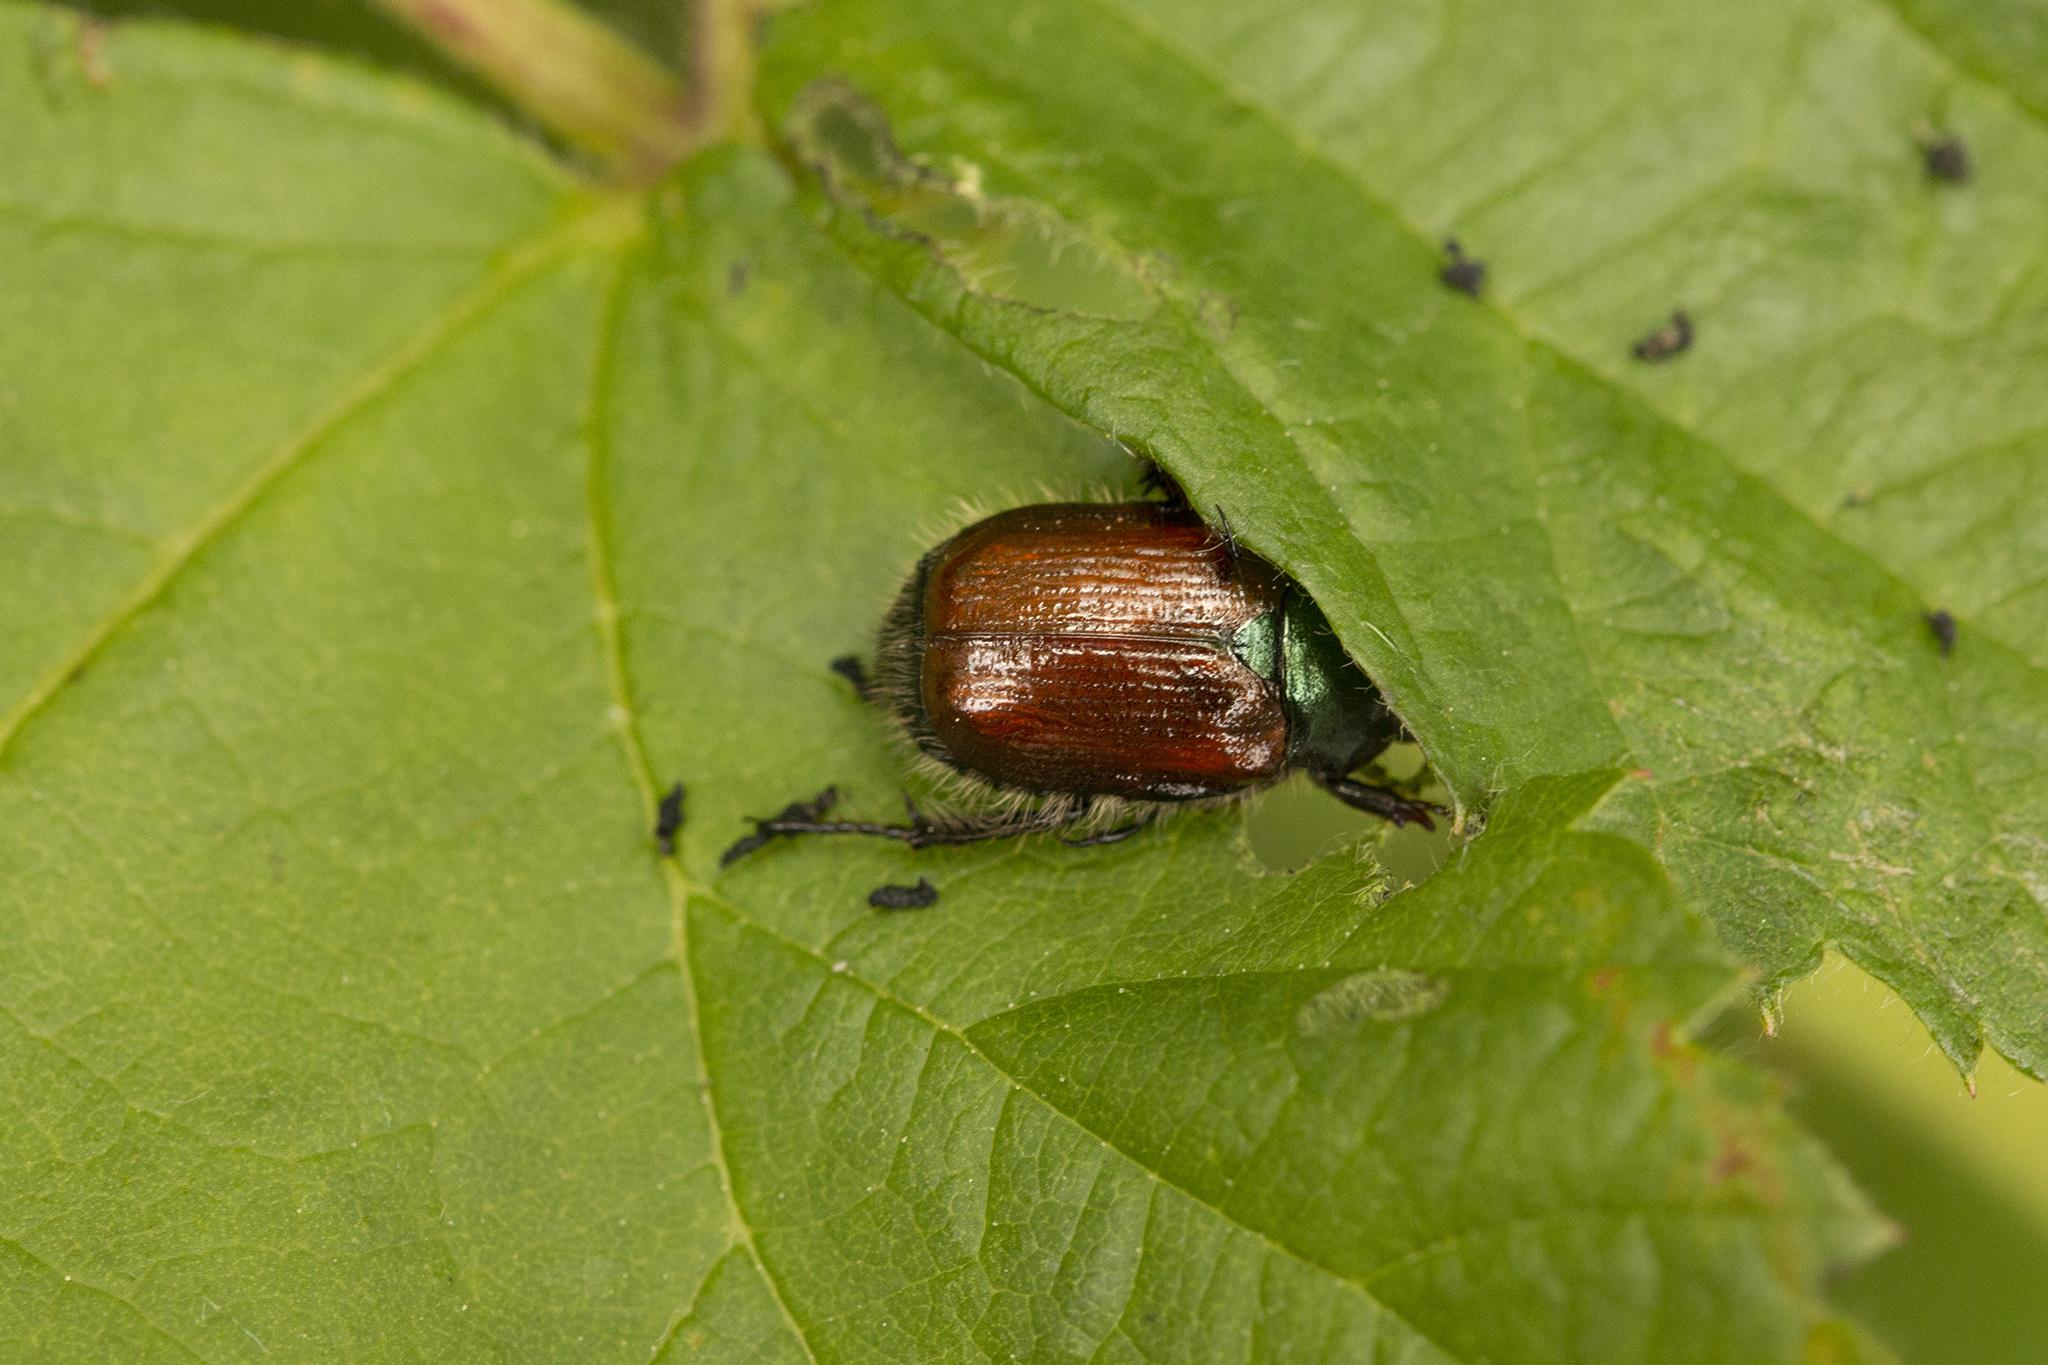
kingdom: Animalia
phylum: Arthropoda
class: Insecta
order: Coleoptera
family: Scarabaeidae
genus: Phyllopertha
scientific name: Phyllopertha horticola
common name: Garden chafer
